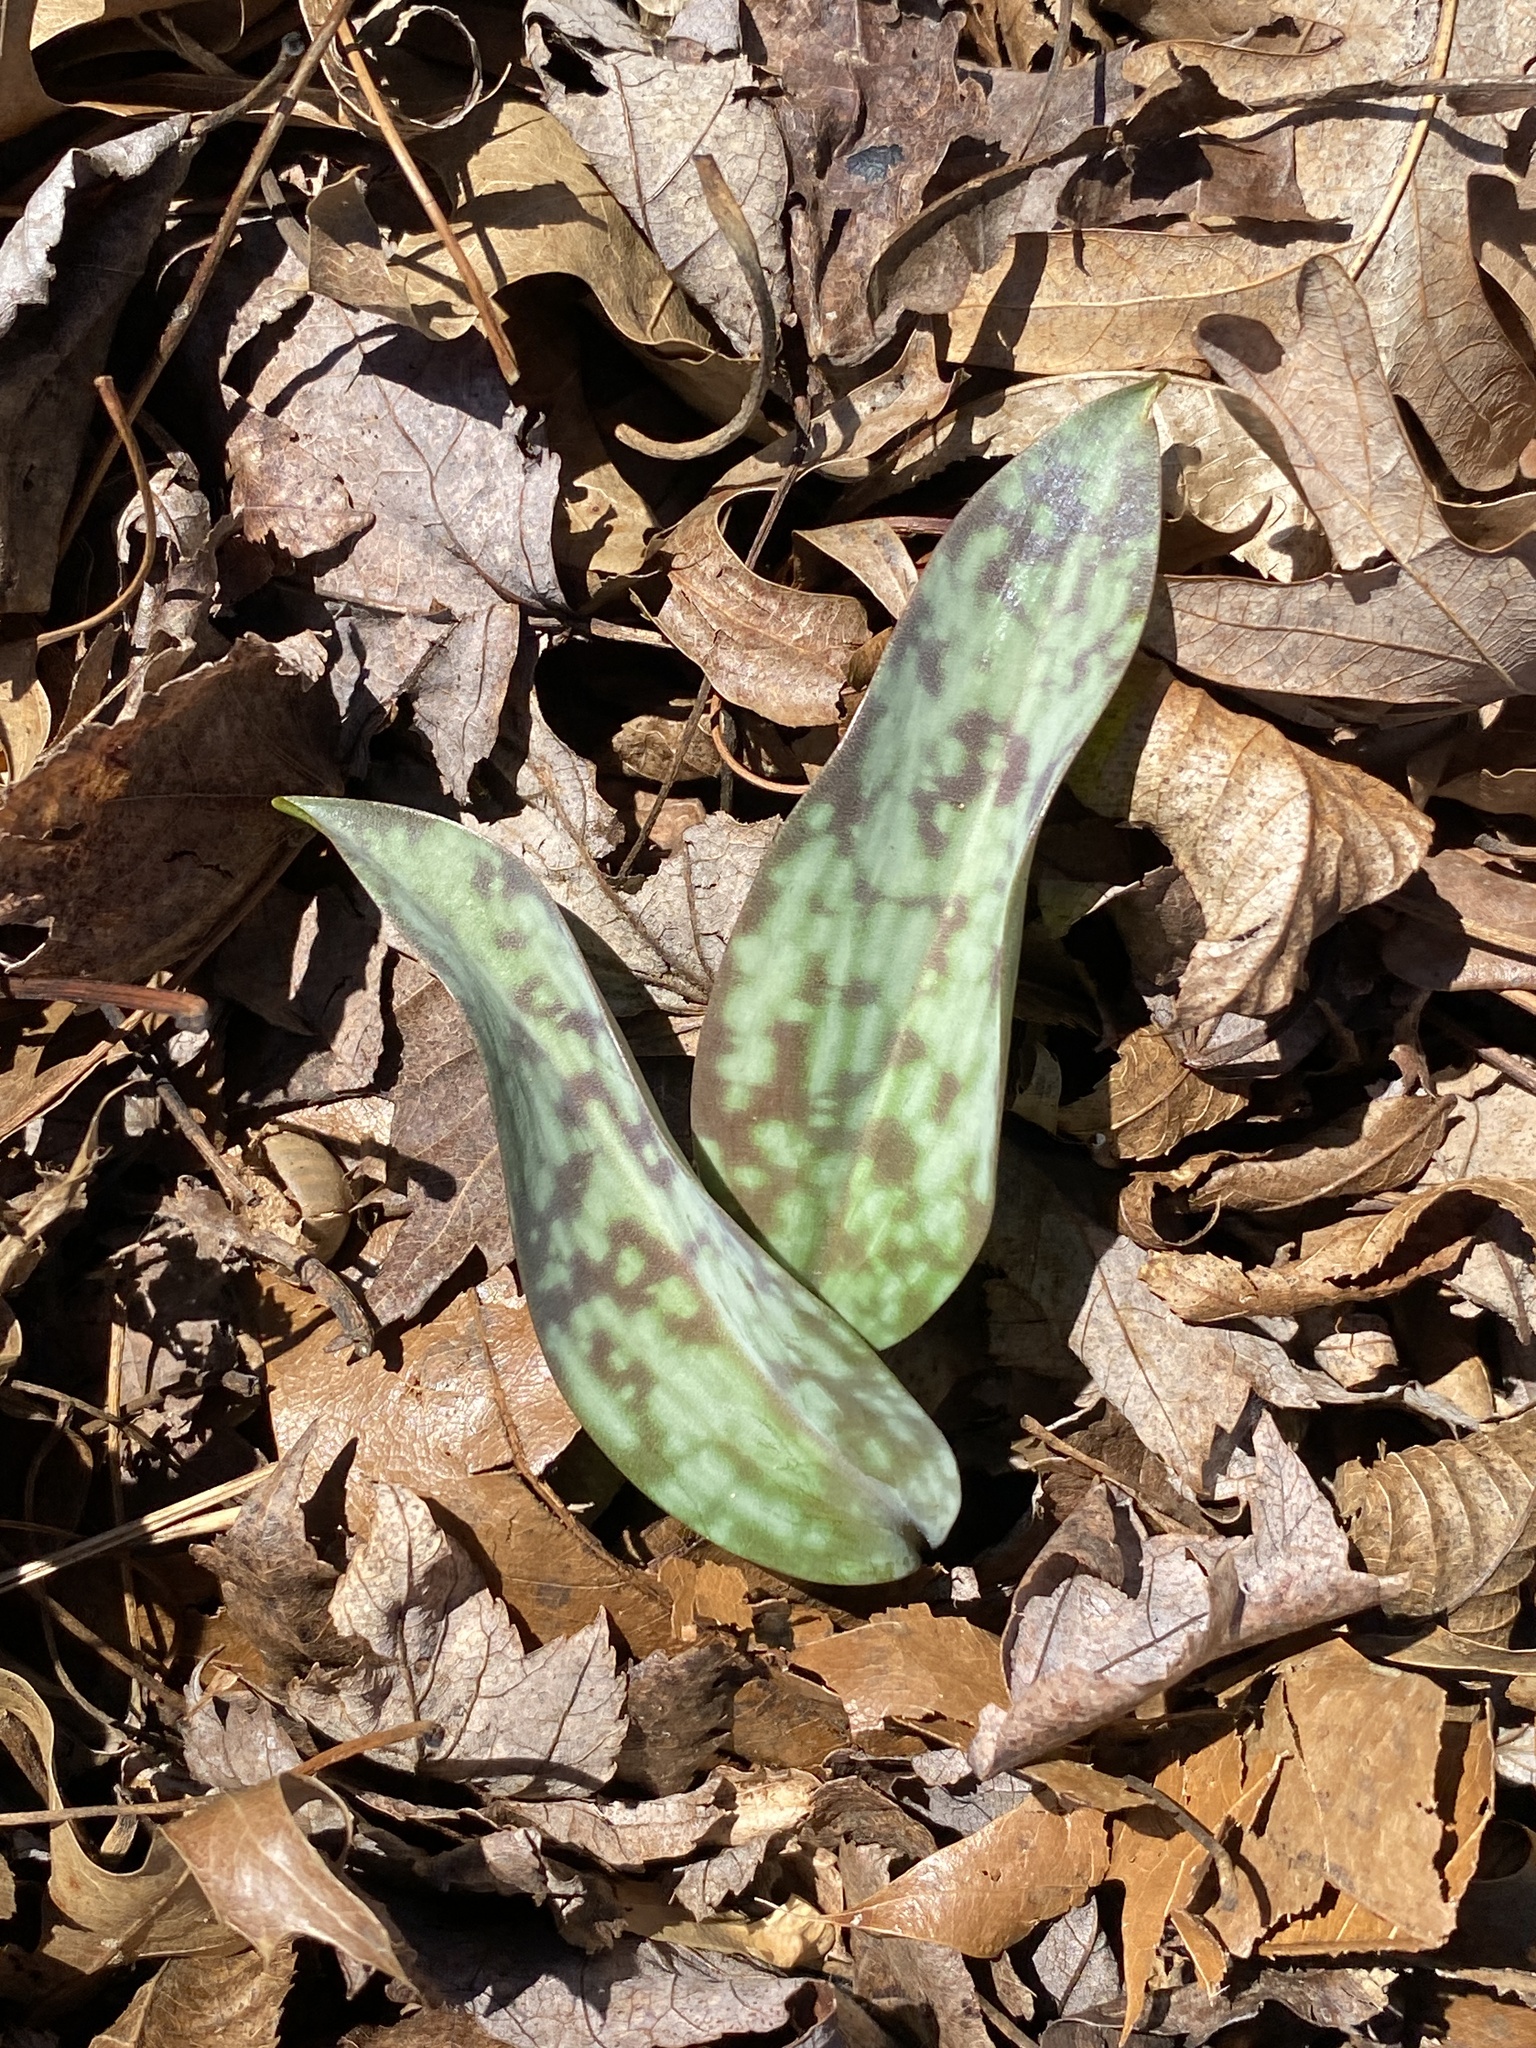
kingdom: Plantae
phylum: Tracheophyta
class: Liliopsida
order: Liliales
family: Liliaceae
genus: Erythronium
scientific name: Erythronium americanum
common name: Yellow adder's-tongue
